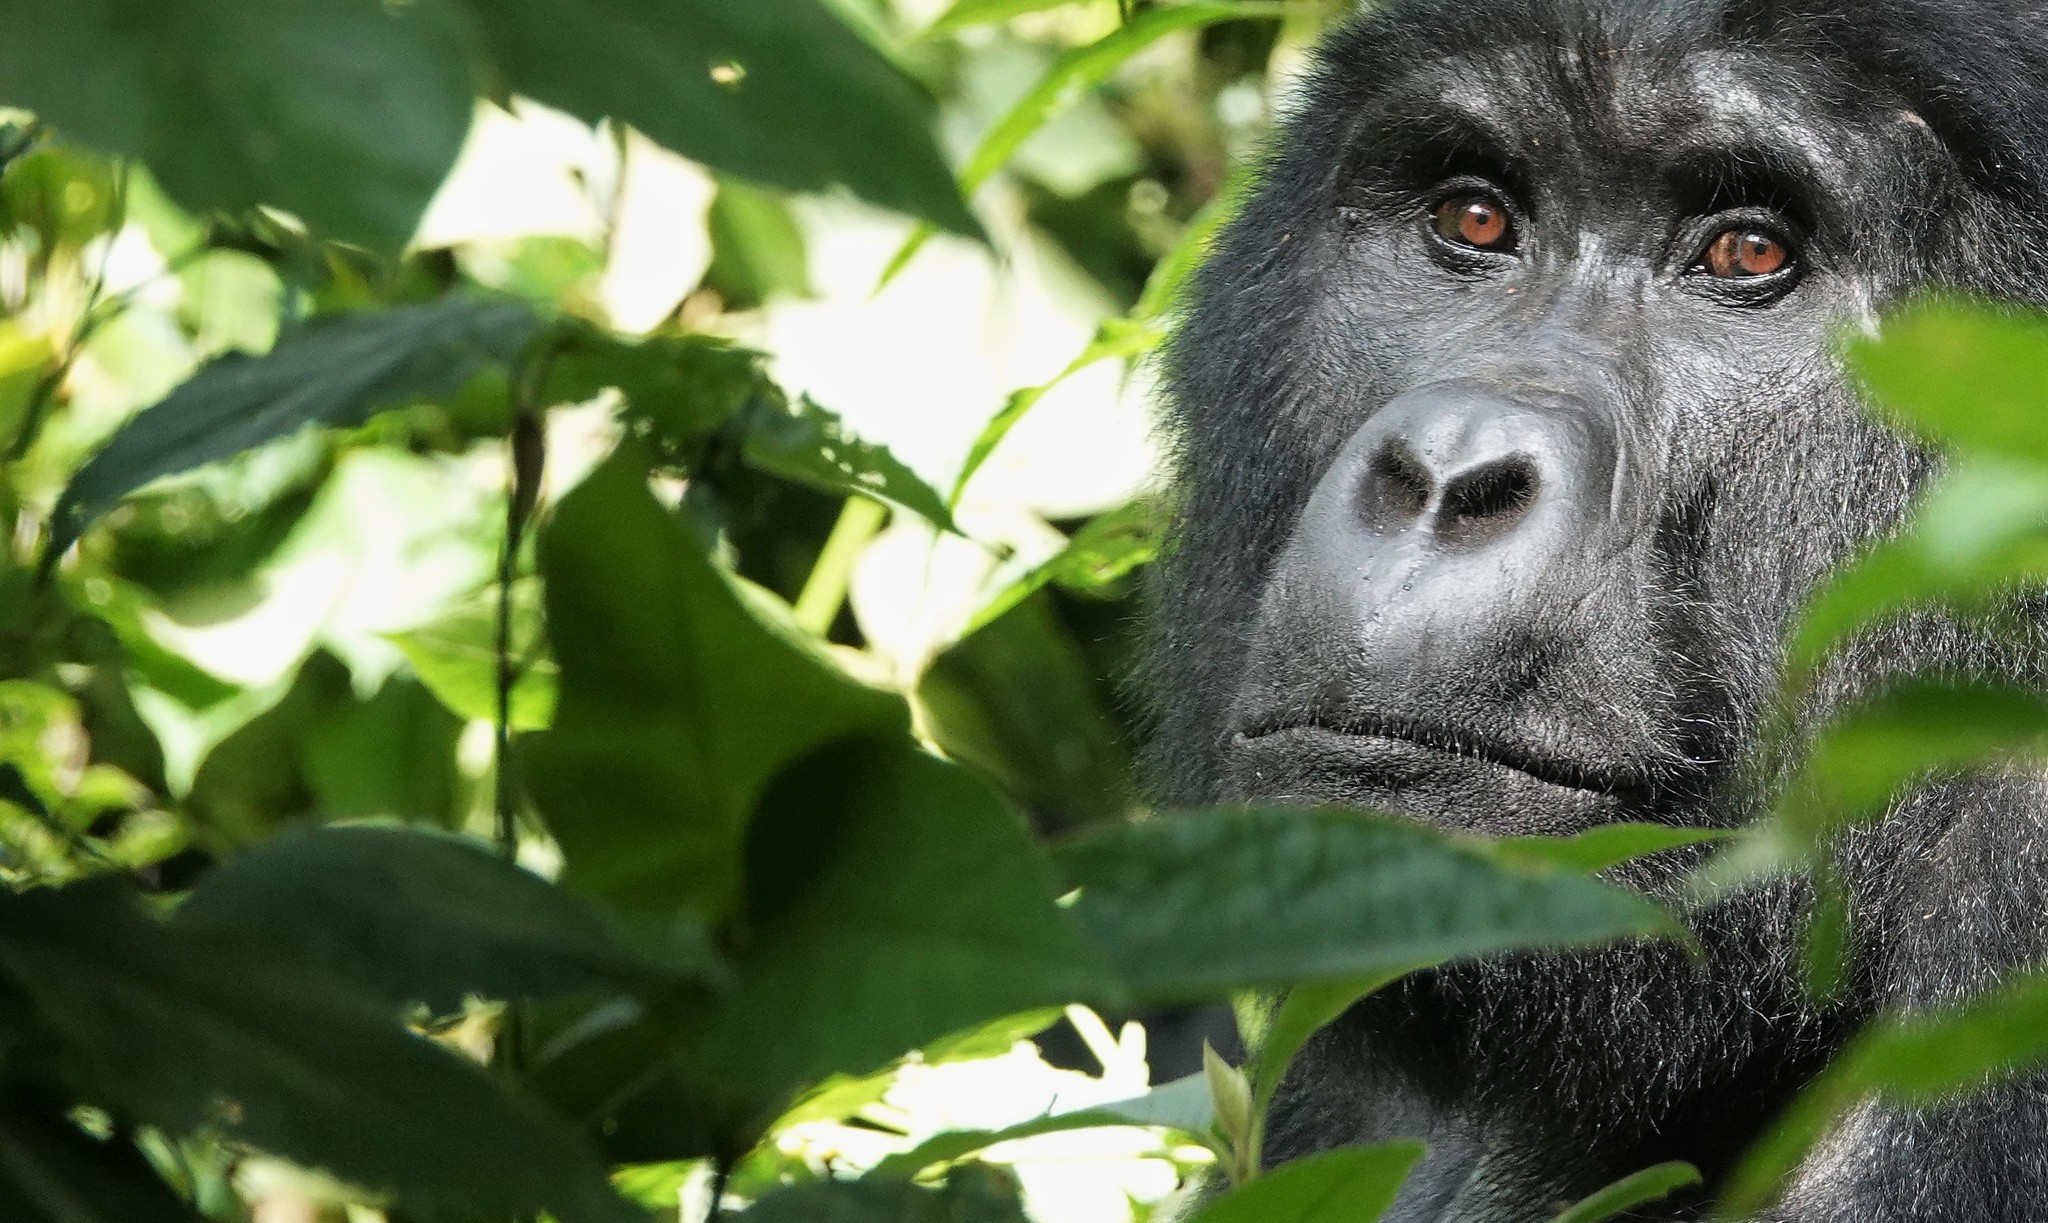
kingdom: Animalia
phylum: Chordata
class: Mammalia
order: Primates
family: Hominidae
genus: Gorilla
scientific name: Gorilla beringei
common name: Eastern gorilla
